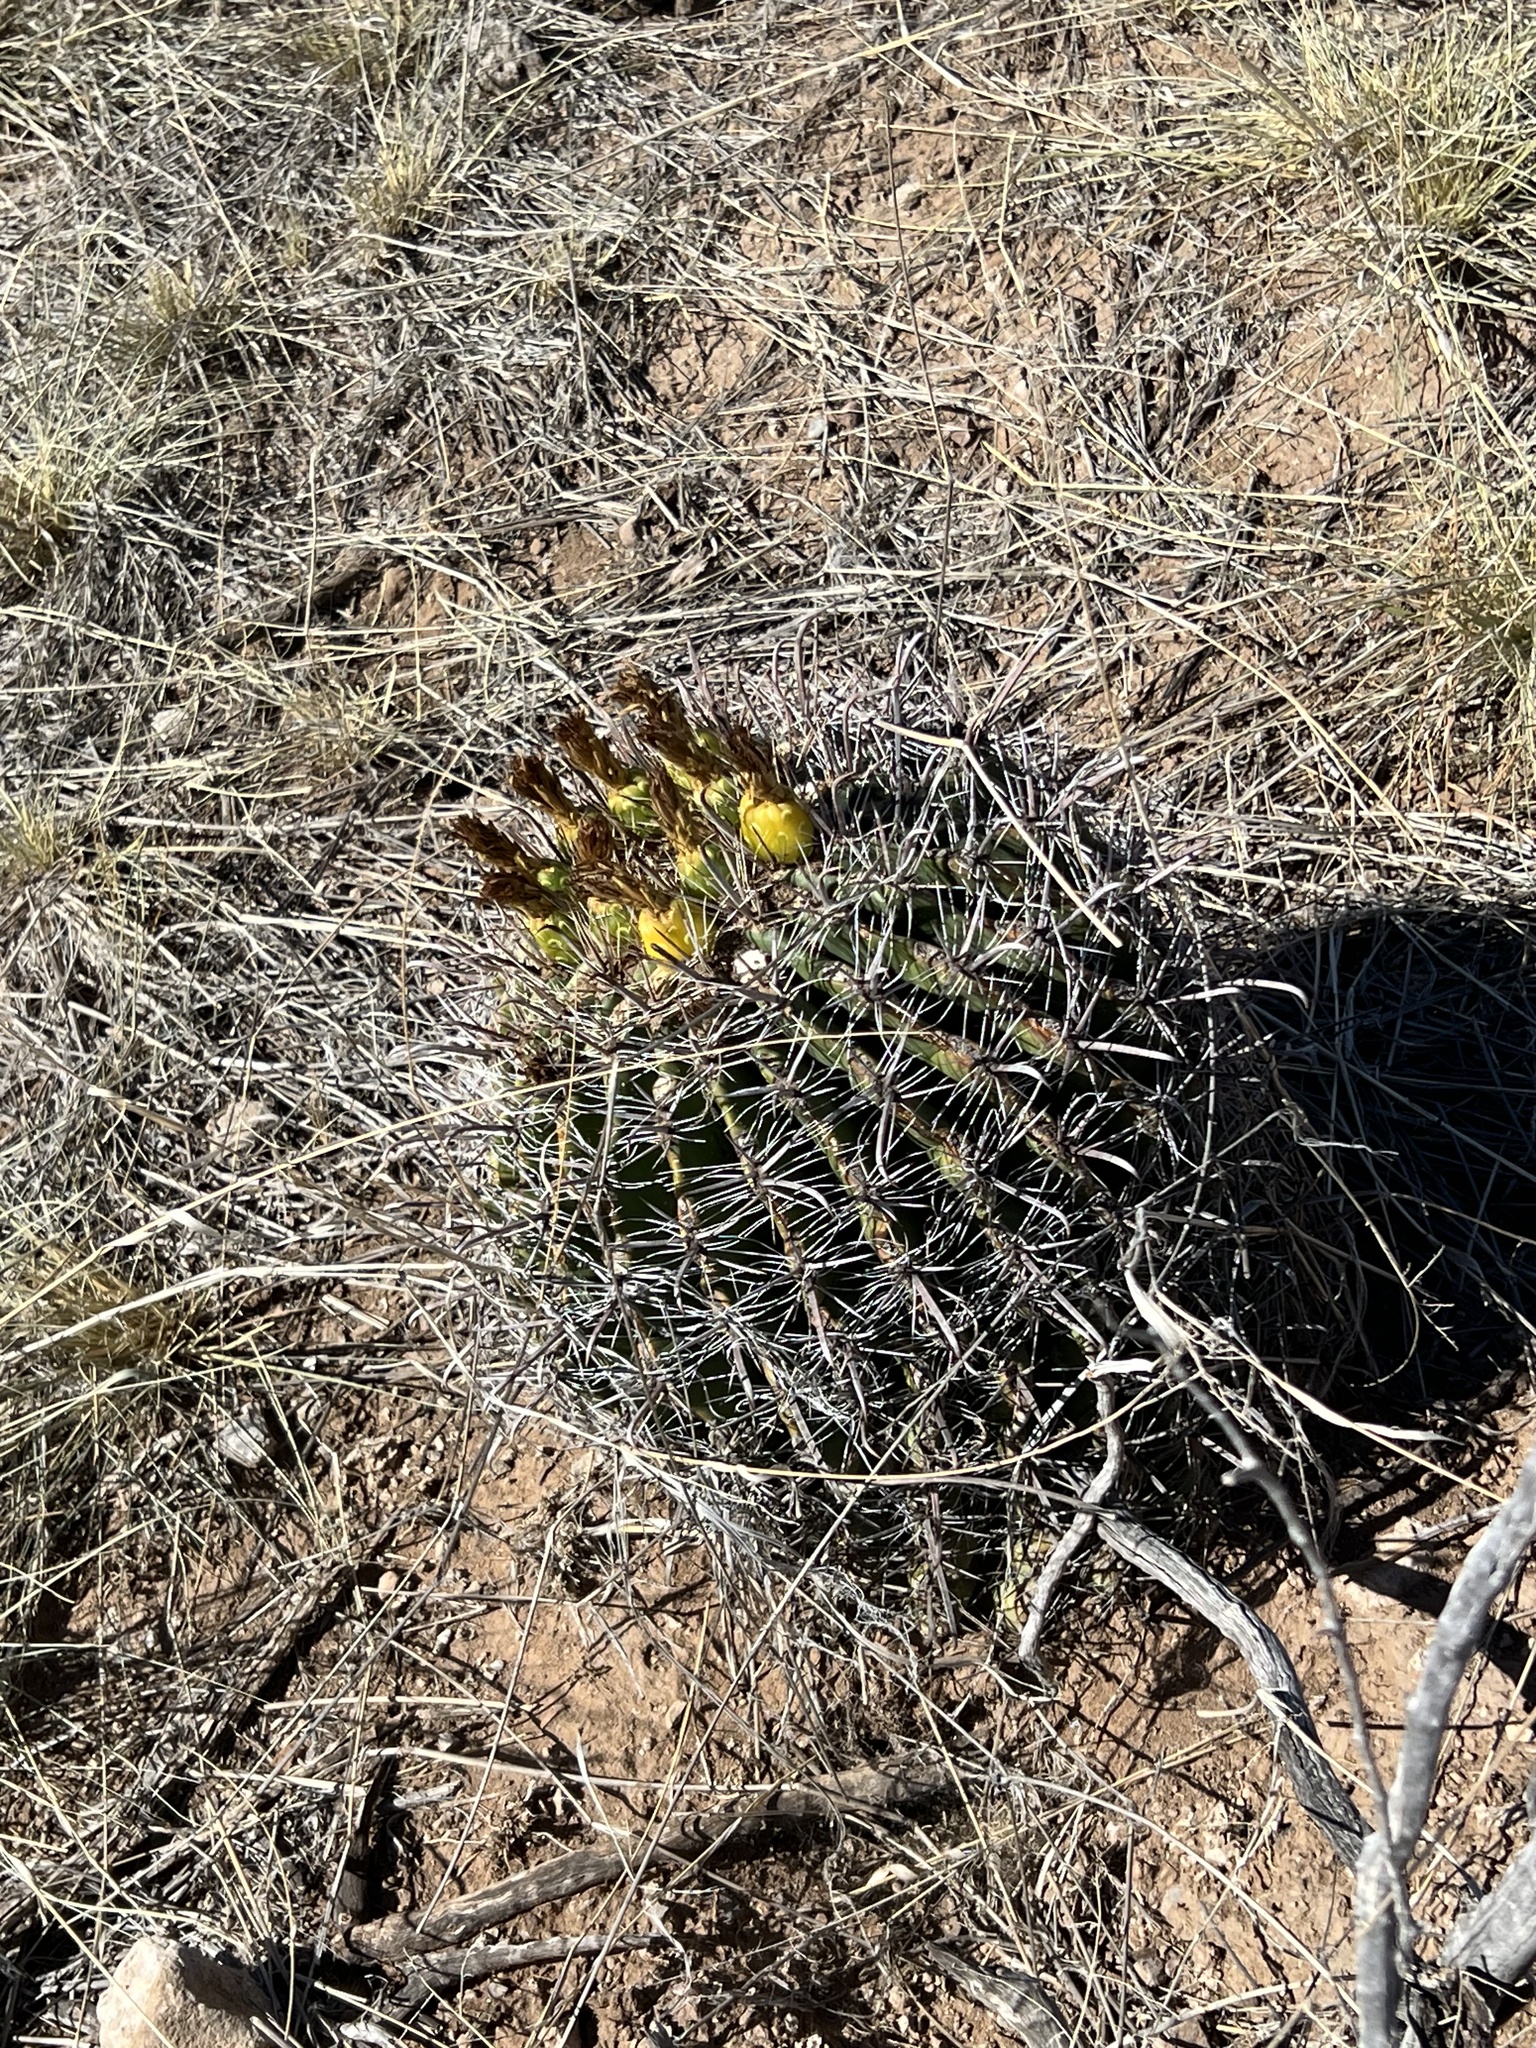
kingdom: Plantae
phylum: Tracheophyta
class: Magnoliopsida
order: Caryophyllales
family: Cactaceae
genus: Ferocactus
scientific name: Ferocactus wislizeni
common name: Candy barrel cactus
